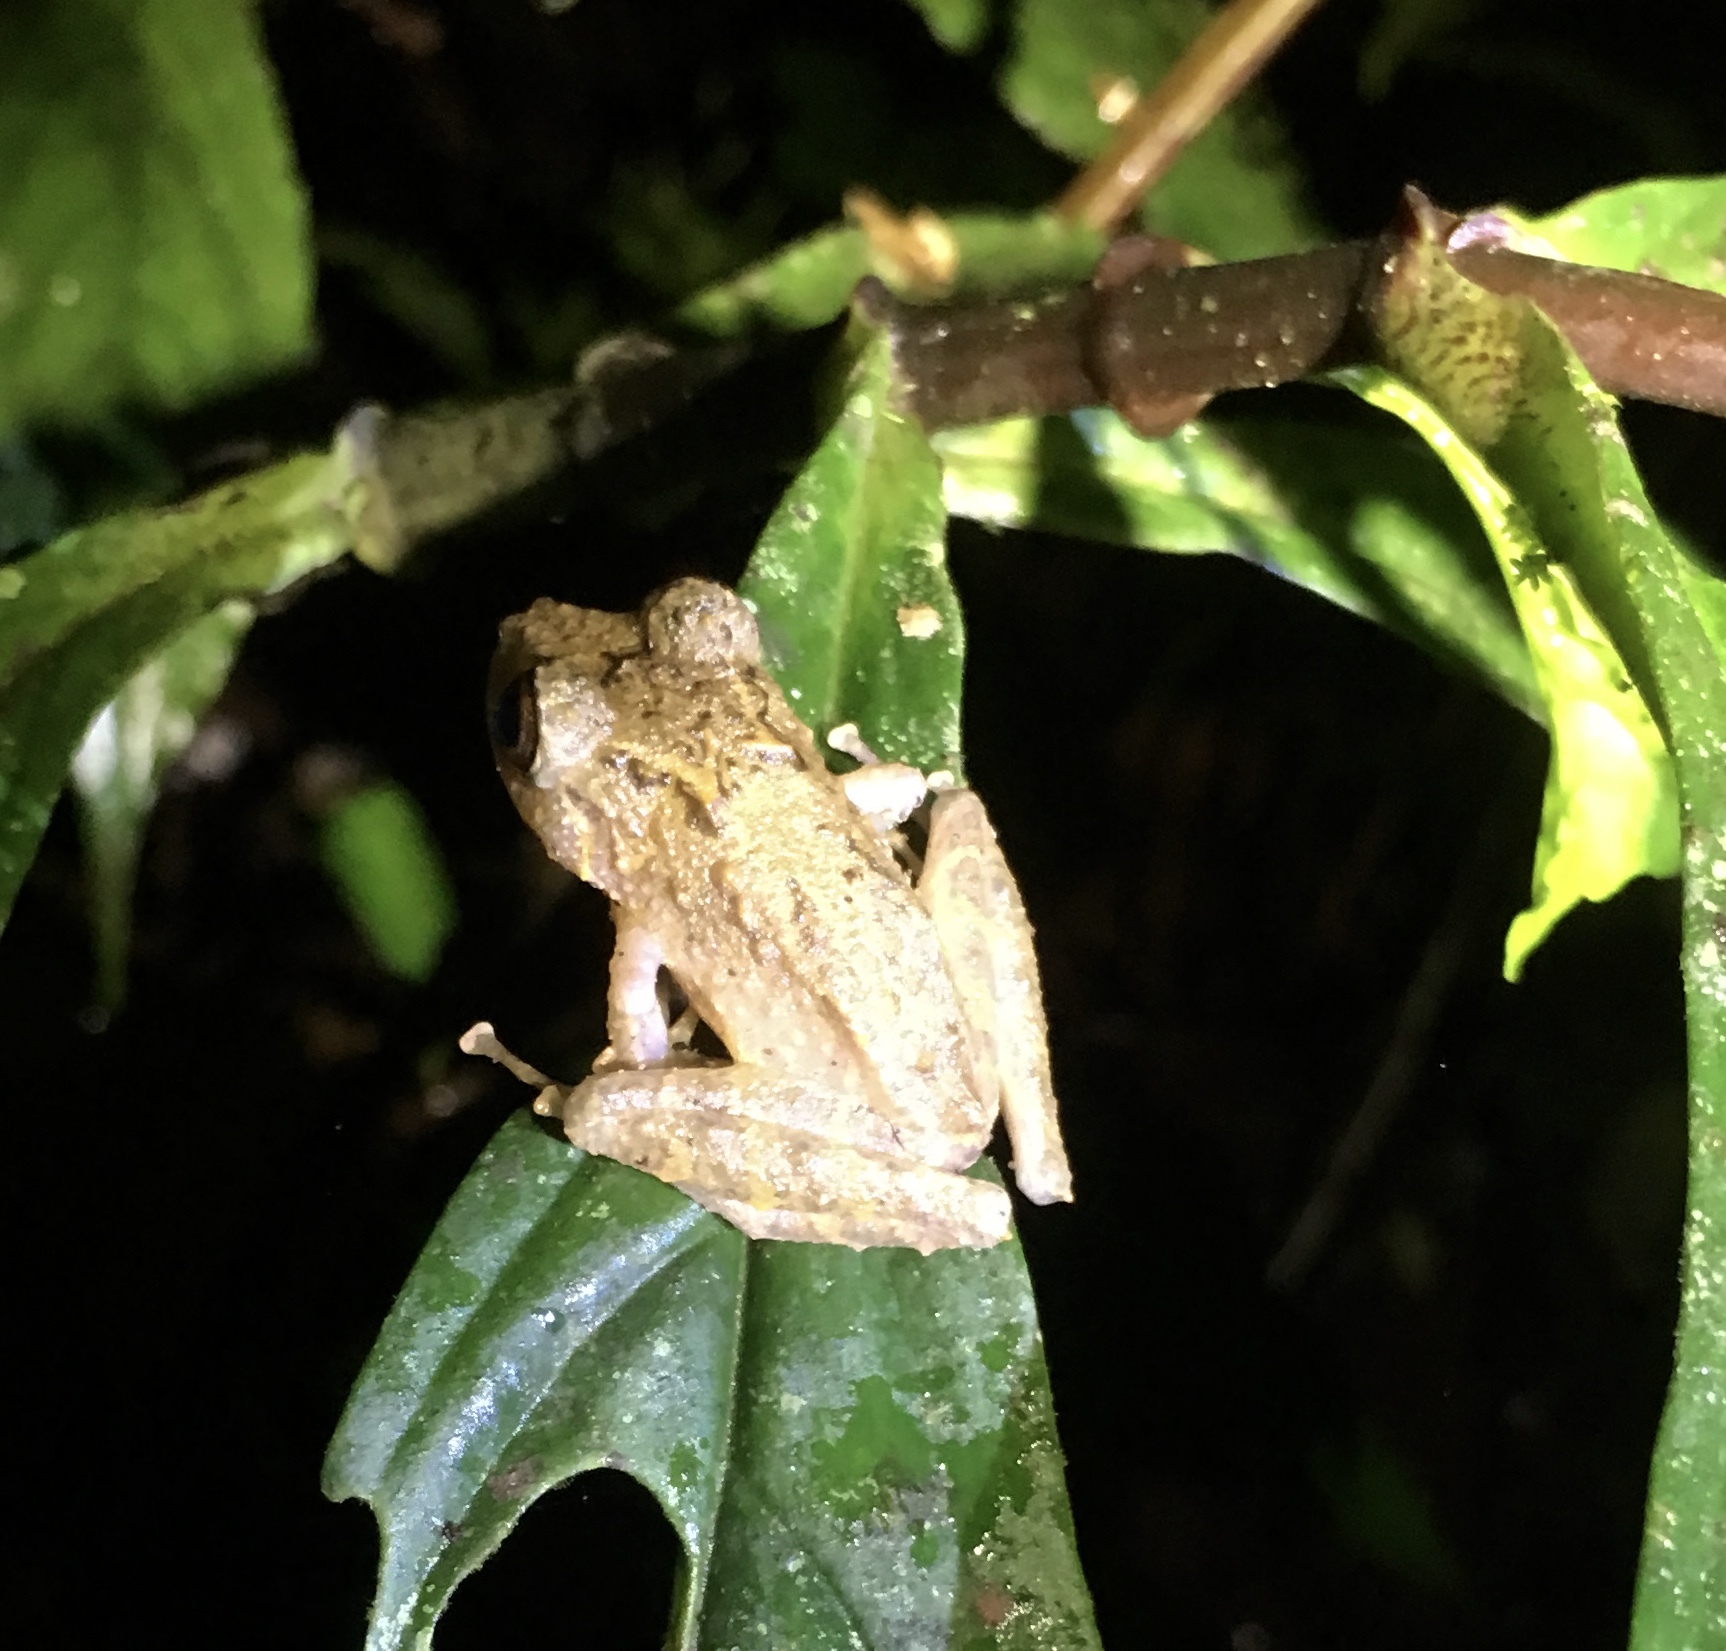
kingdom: Animalia
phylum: Chordata
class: Amphibia
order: Anura
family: Craugastoridae
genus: Pristimantis
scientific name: Pristimantis muricatus
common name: Rio faisanes robber frog
